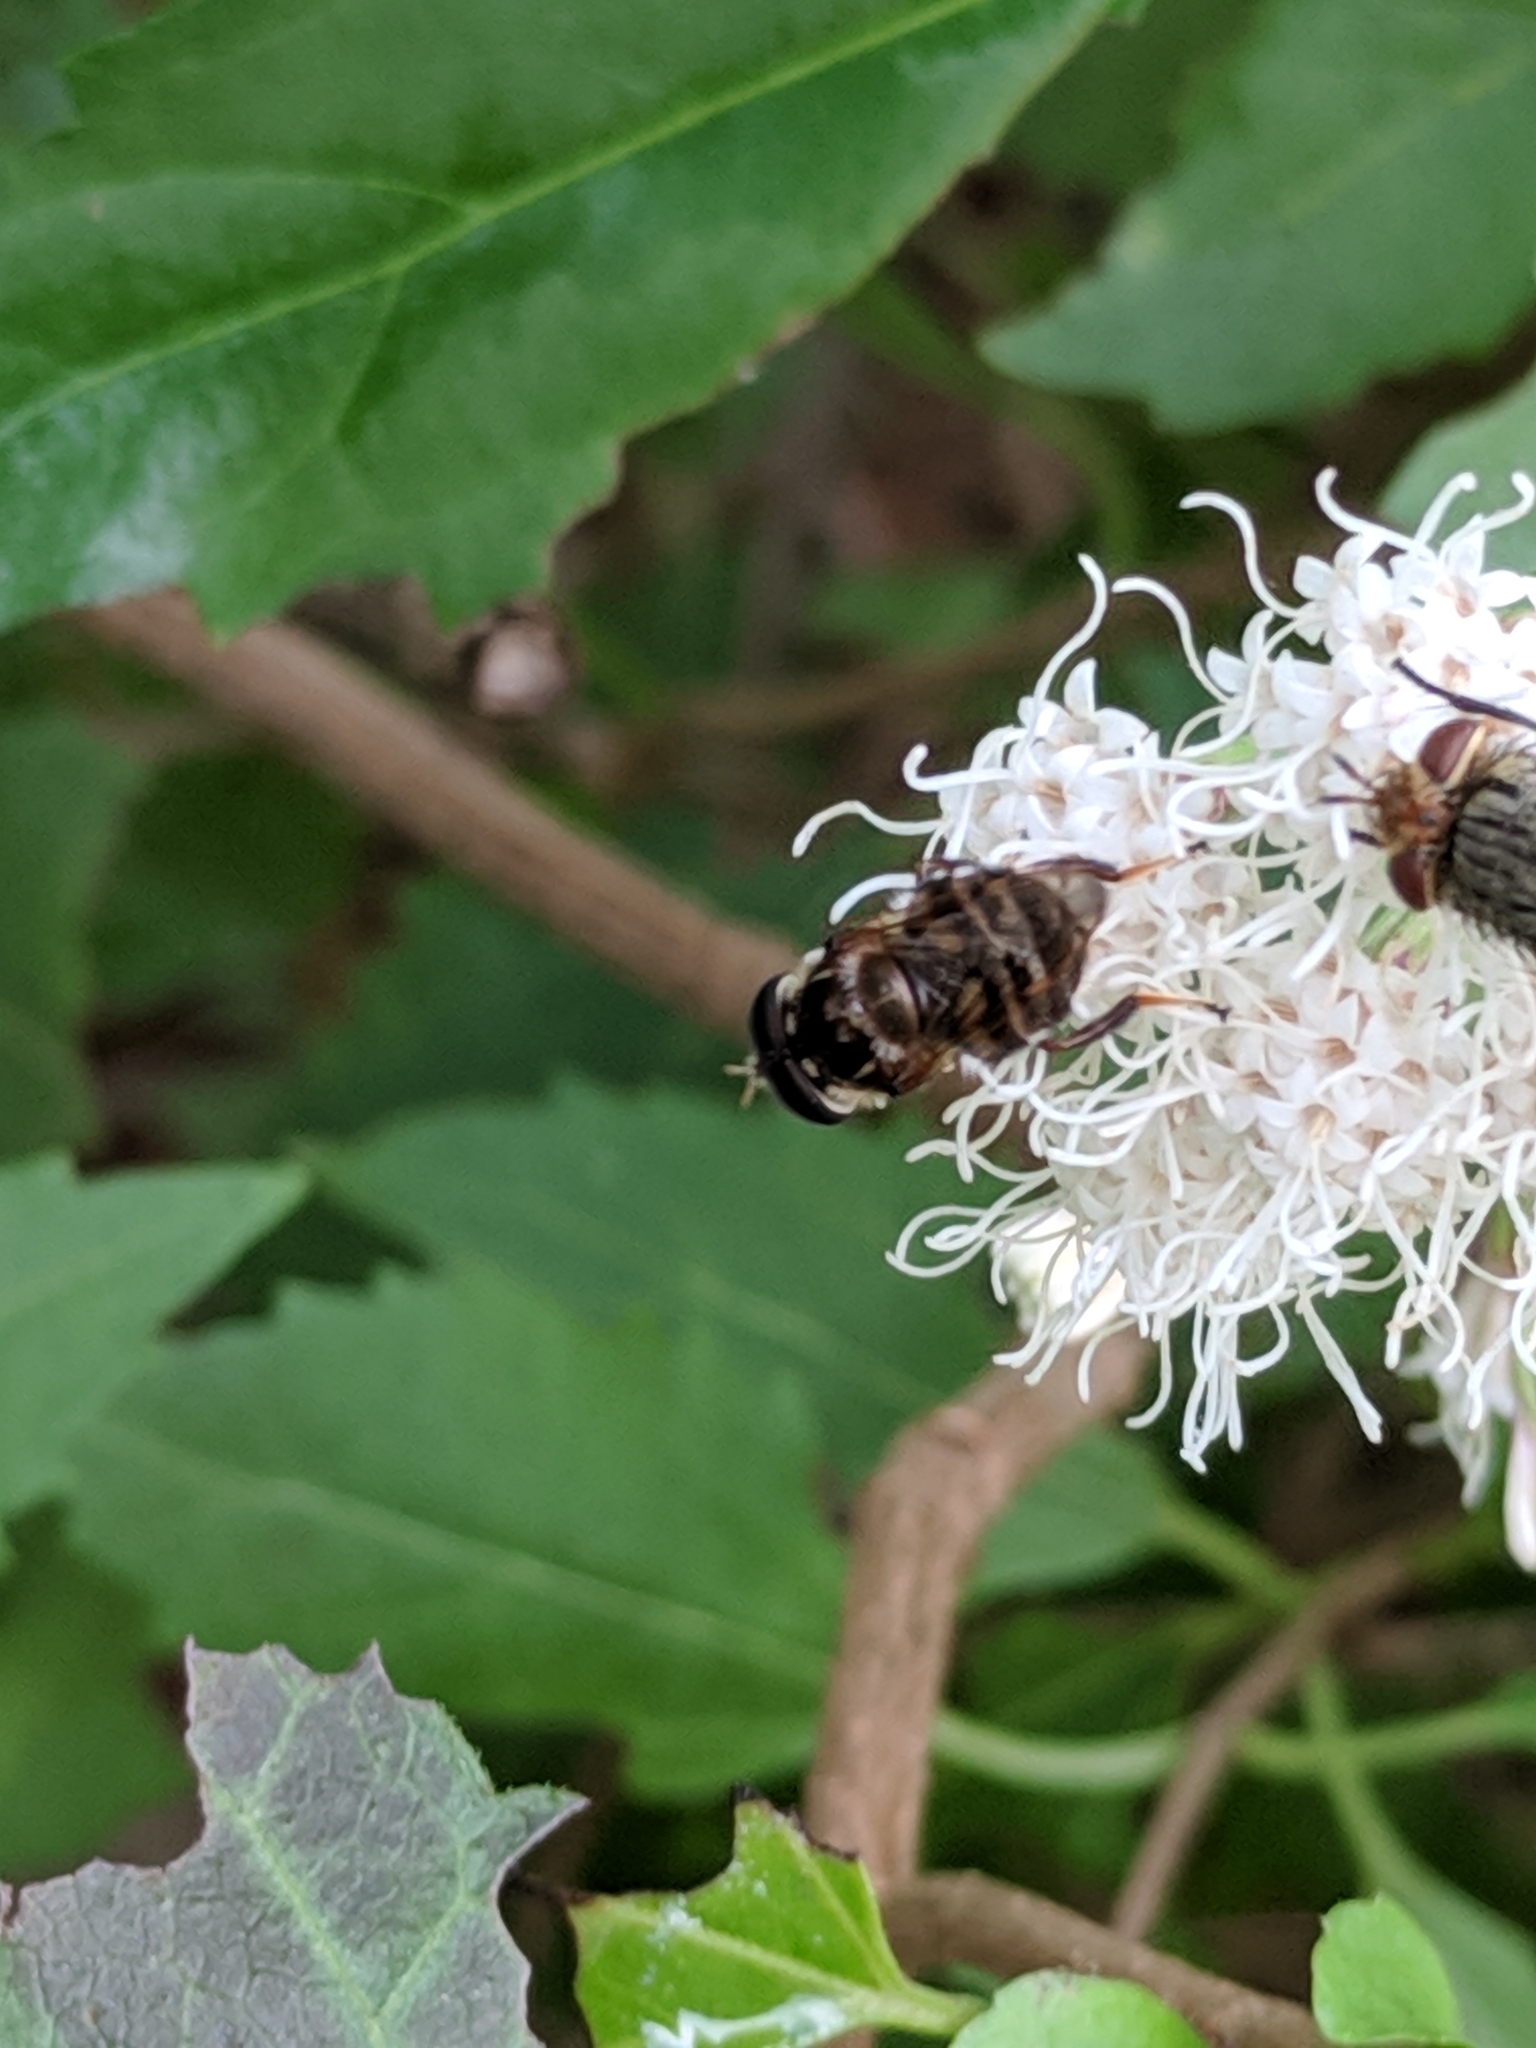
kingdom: Animalia
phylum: Arthropoda
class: Insecta
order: Diptera
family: Syrphidae
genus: Copestylum
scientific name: Copestylum tamaulipanum
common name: Syrphid fly
